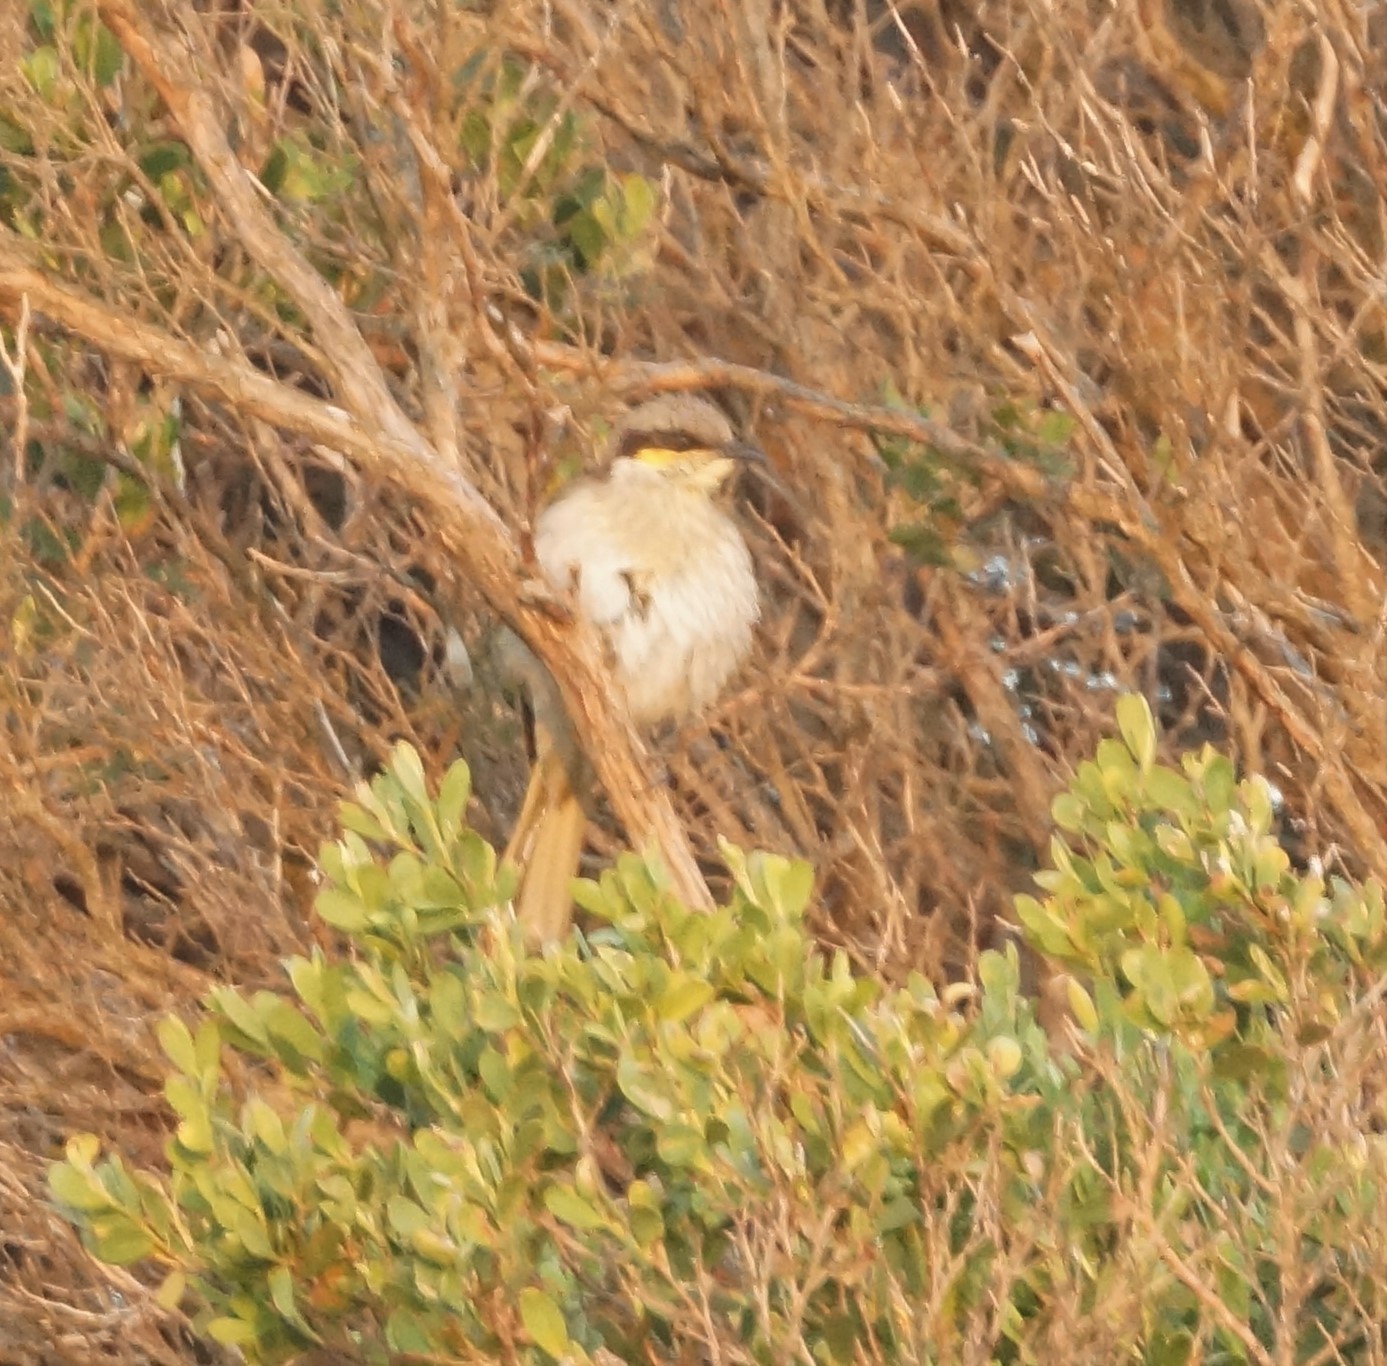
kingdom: Animalia
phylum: Chordata
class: Aves
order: Passeriformes
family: Meliphagidae
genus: Gavicalis
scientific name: Gavicalis virescens
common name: Singing honeyeater
